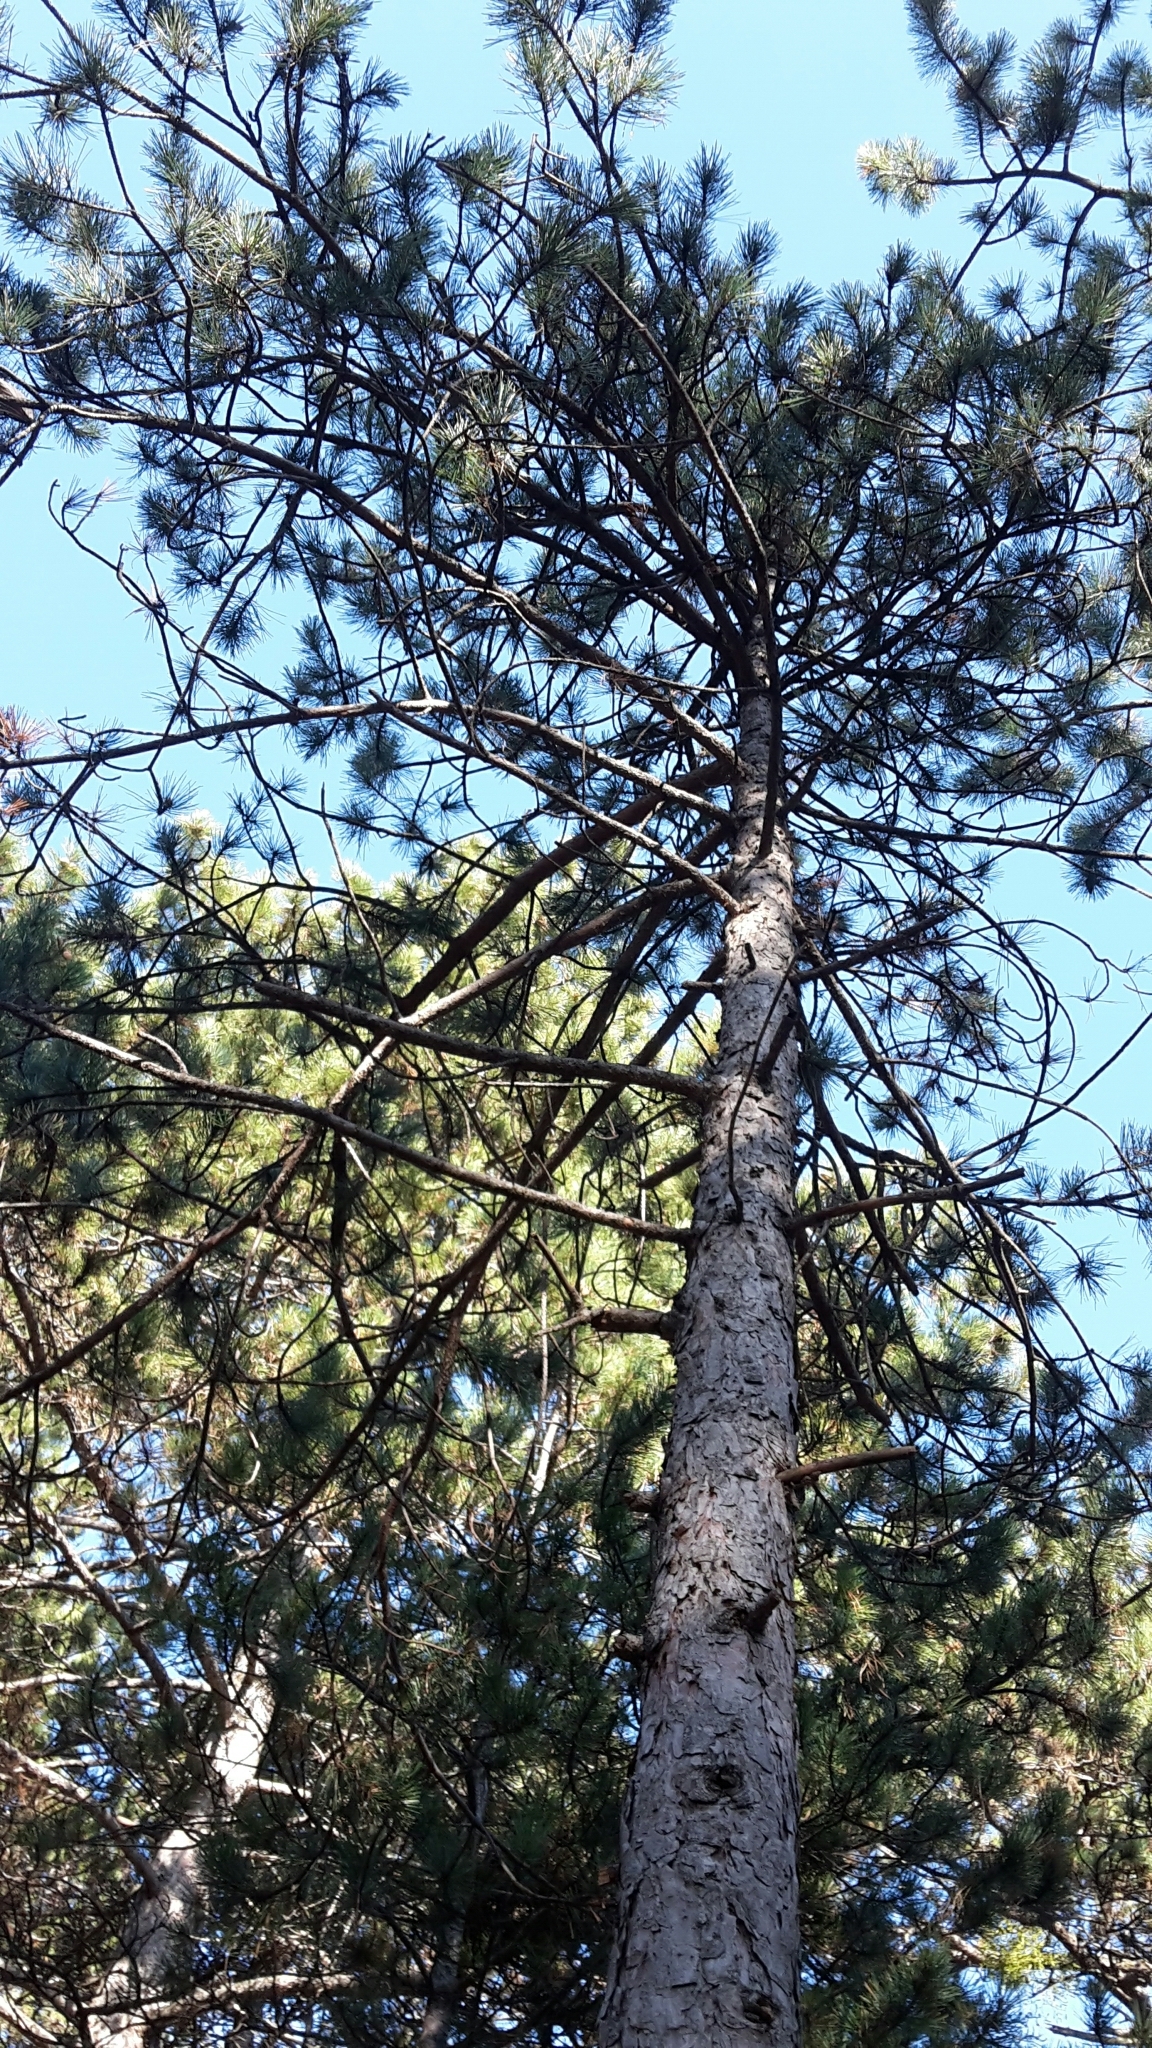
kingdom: Plantae
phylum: Tracheophyta
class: Pinopsida
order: Pinales
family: Pinaceae
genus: Pinus
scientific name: Pinus nigra
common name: Austrian pine
